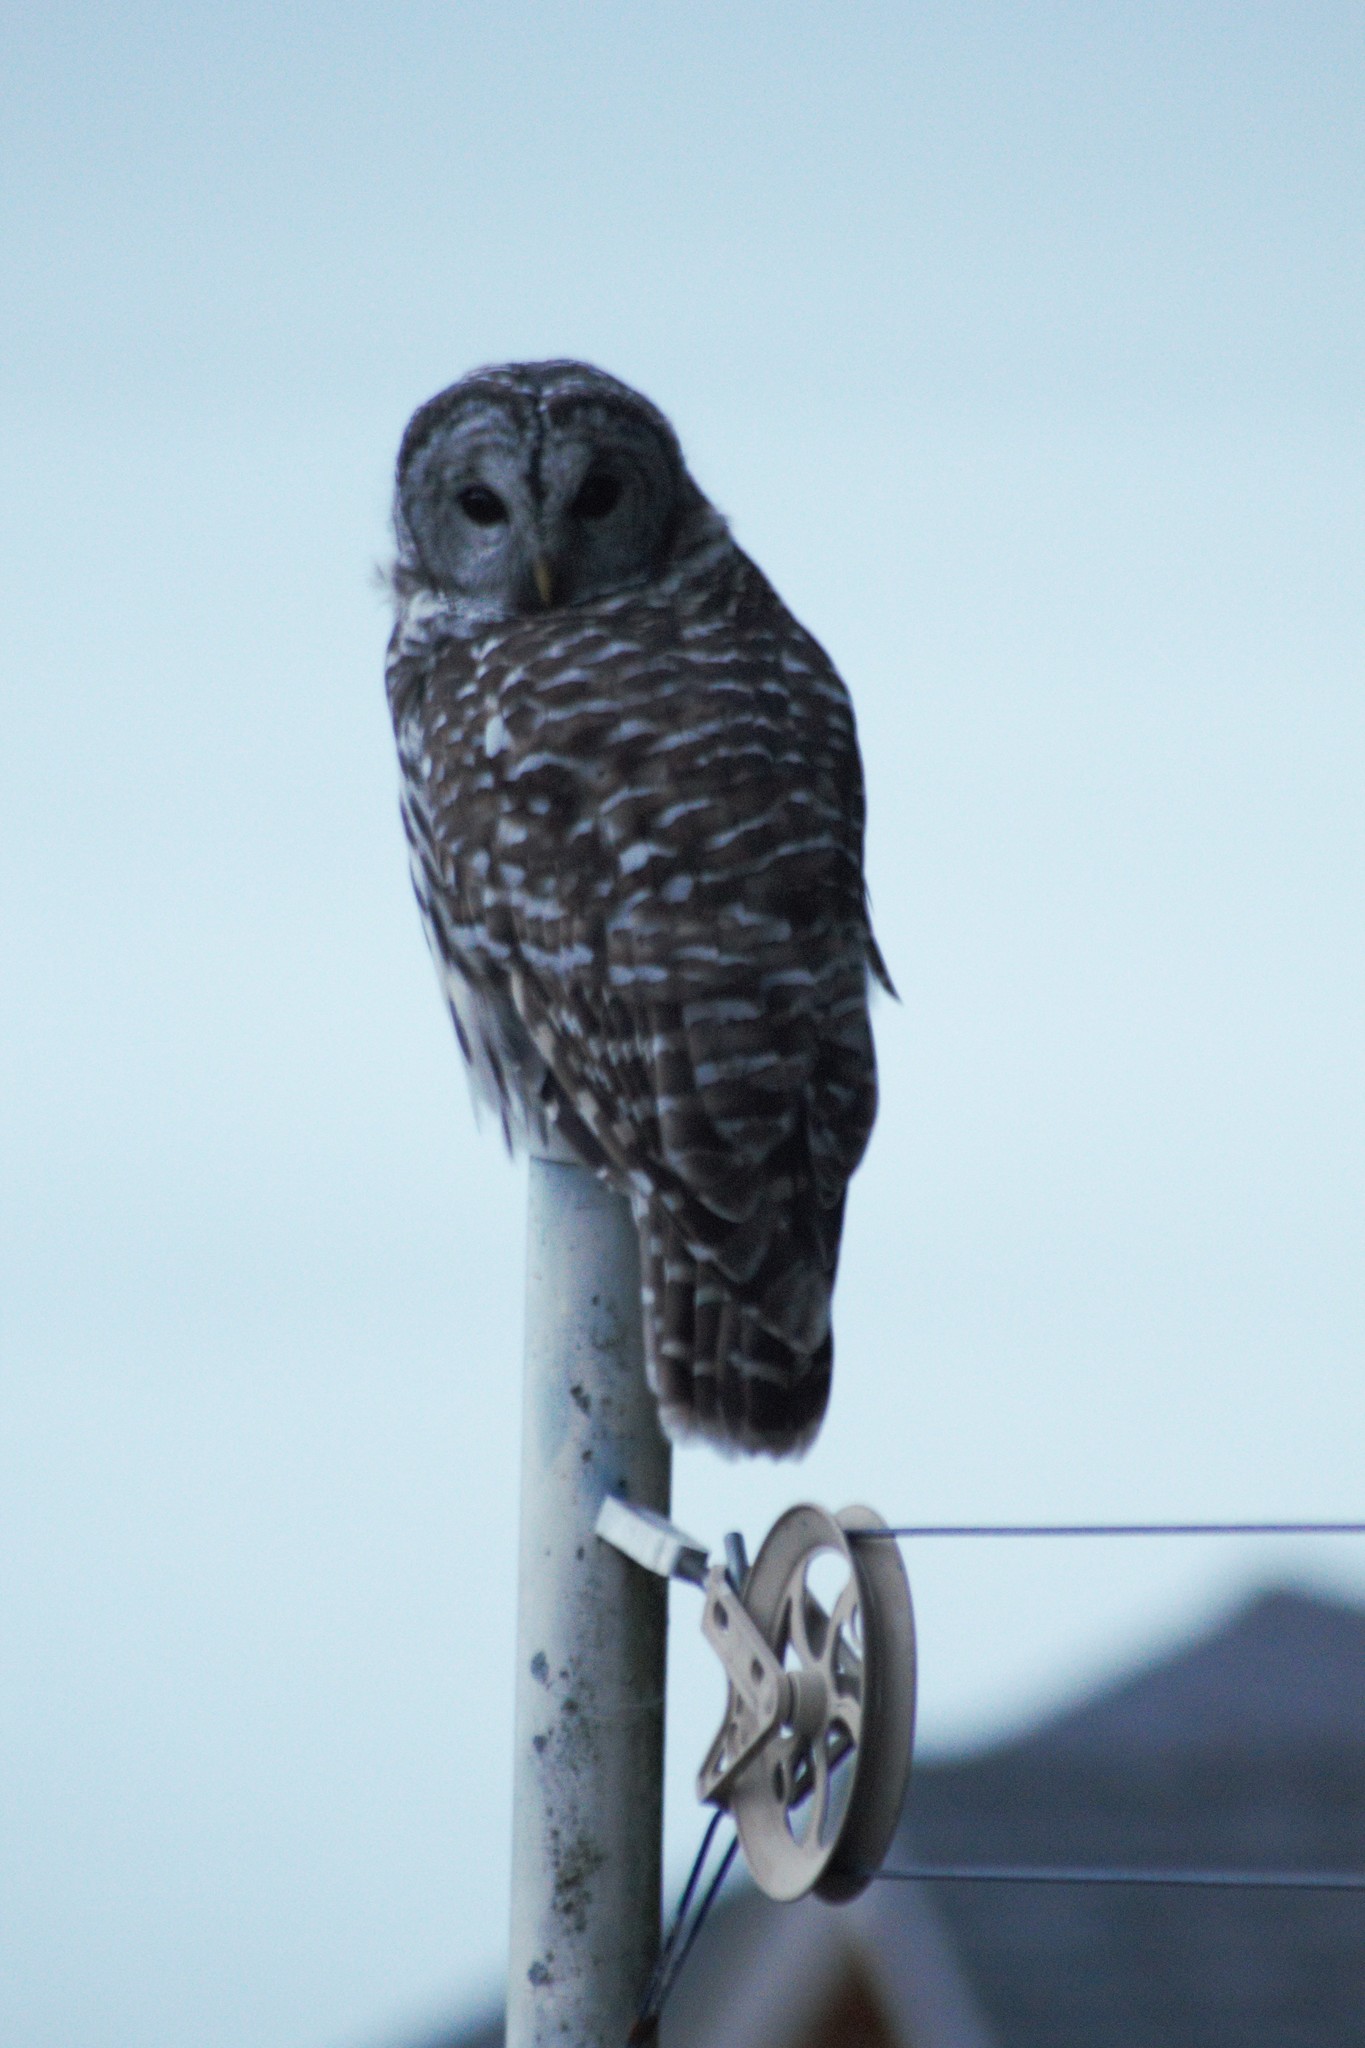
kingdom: Animalia
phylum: Chordata
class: Aves
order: Strigiformes
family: Strigidae
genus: Strix
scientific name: Strix varia
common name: Barred owl
